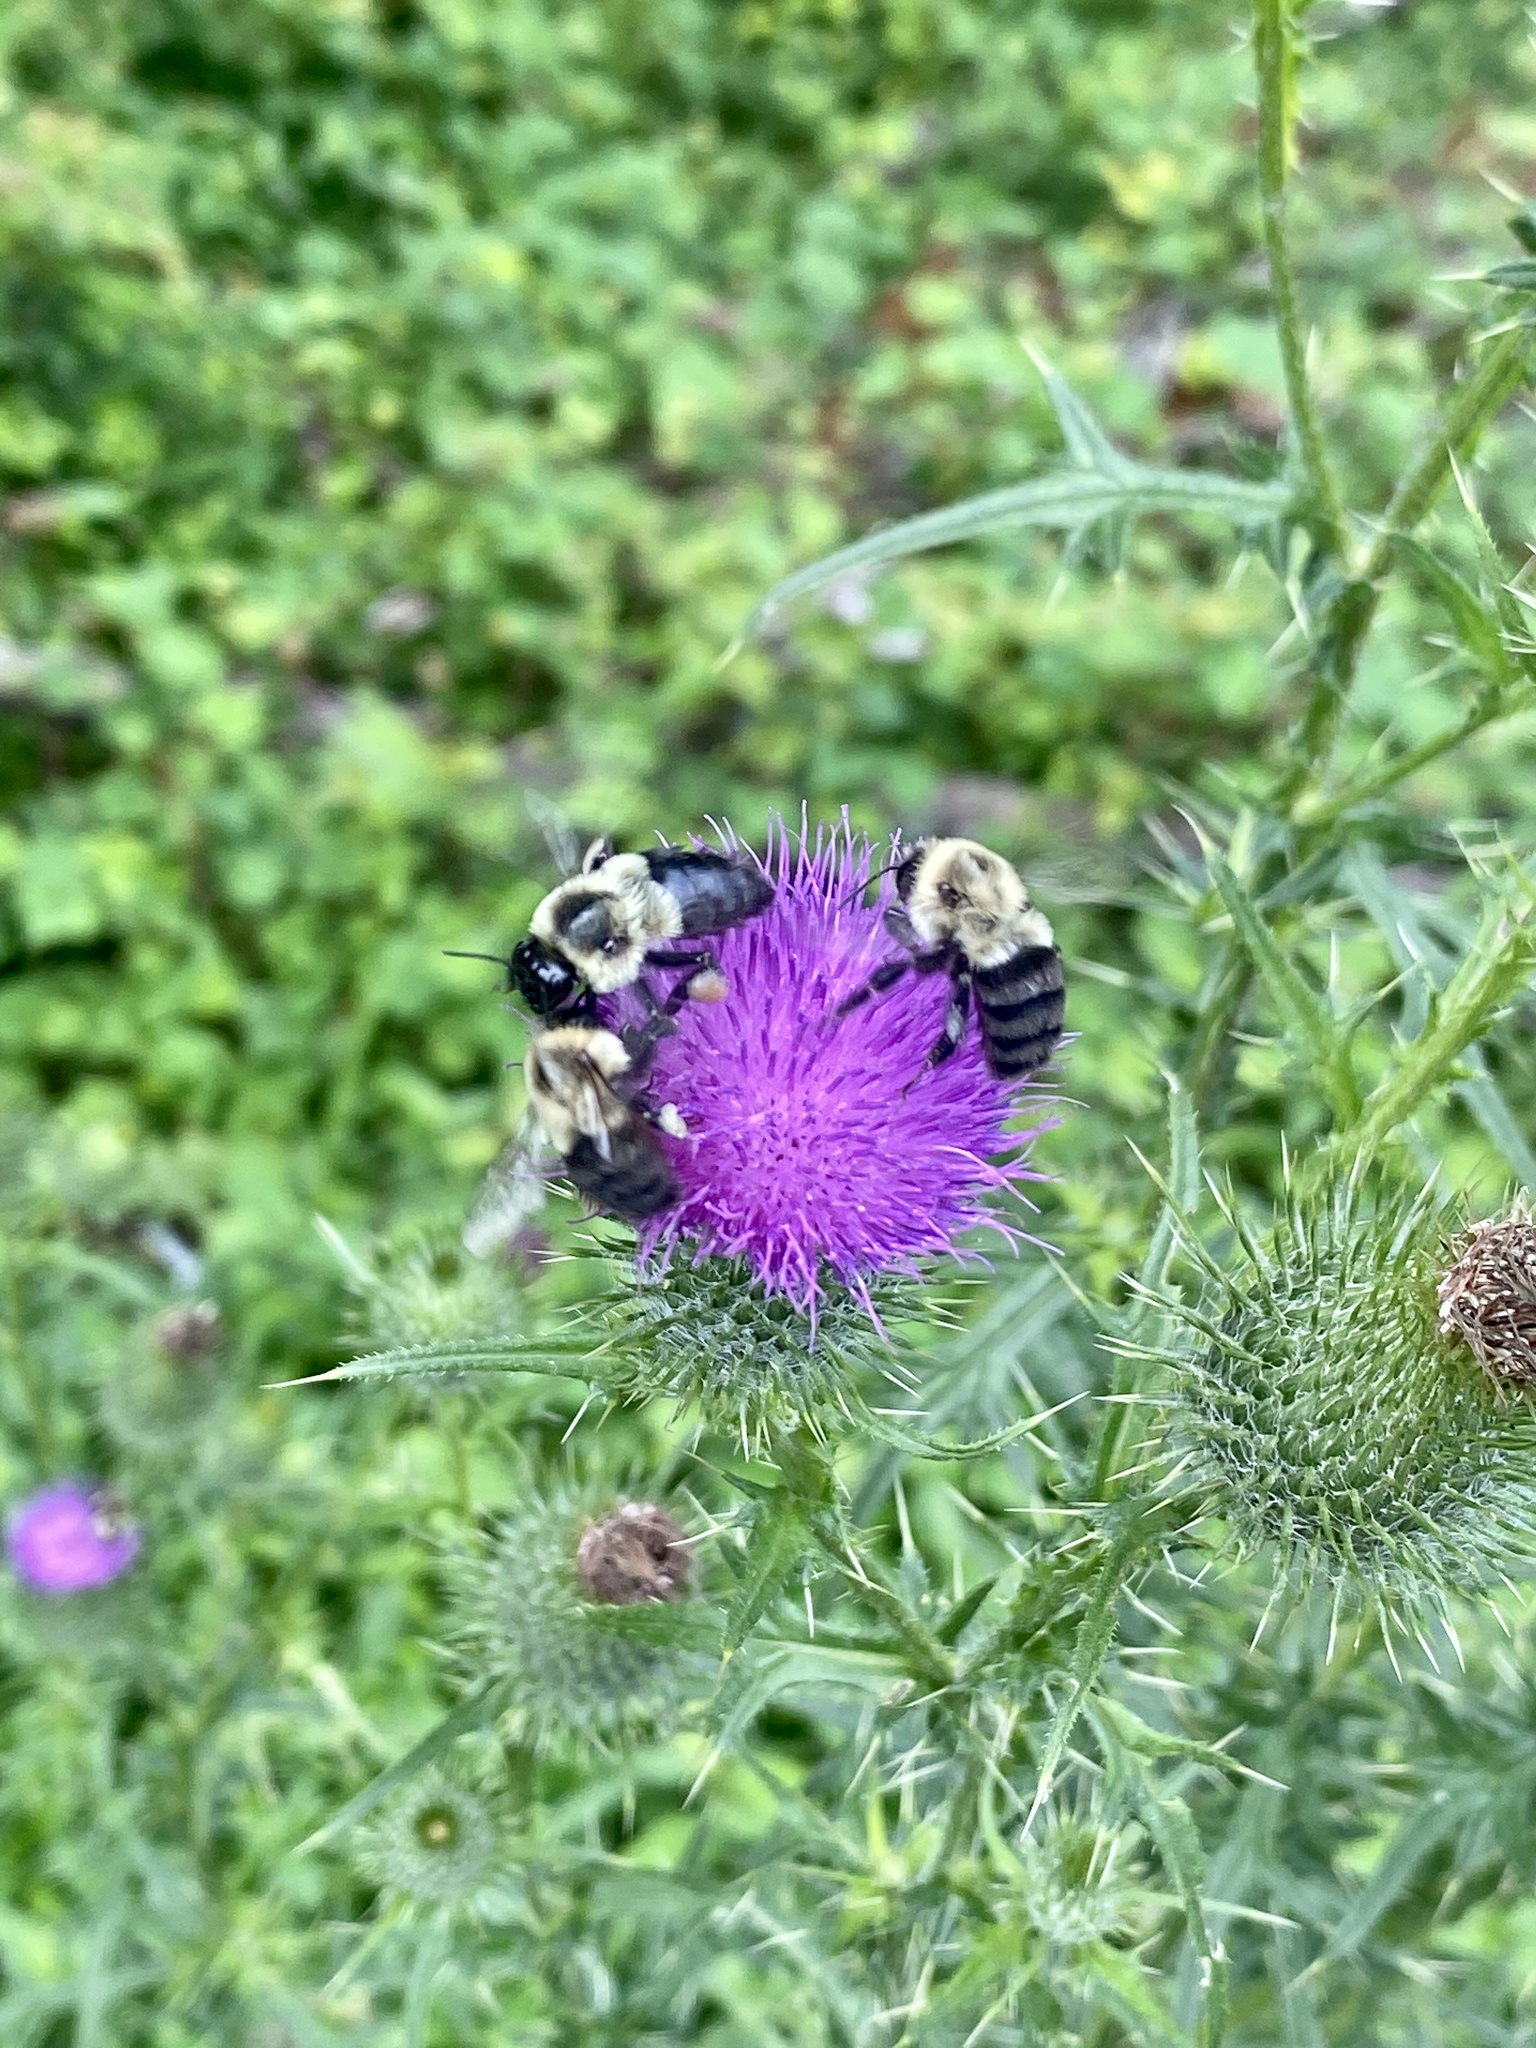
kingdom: Animalia
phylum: Arthropoda
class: Insecta
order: Hymenoptera
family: Apidae
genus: Bombus
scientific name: Bombus impatiens
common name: Common eastern bumble bee
